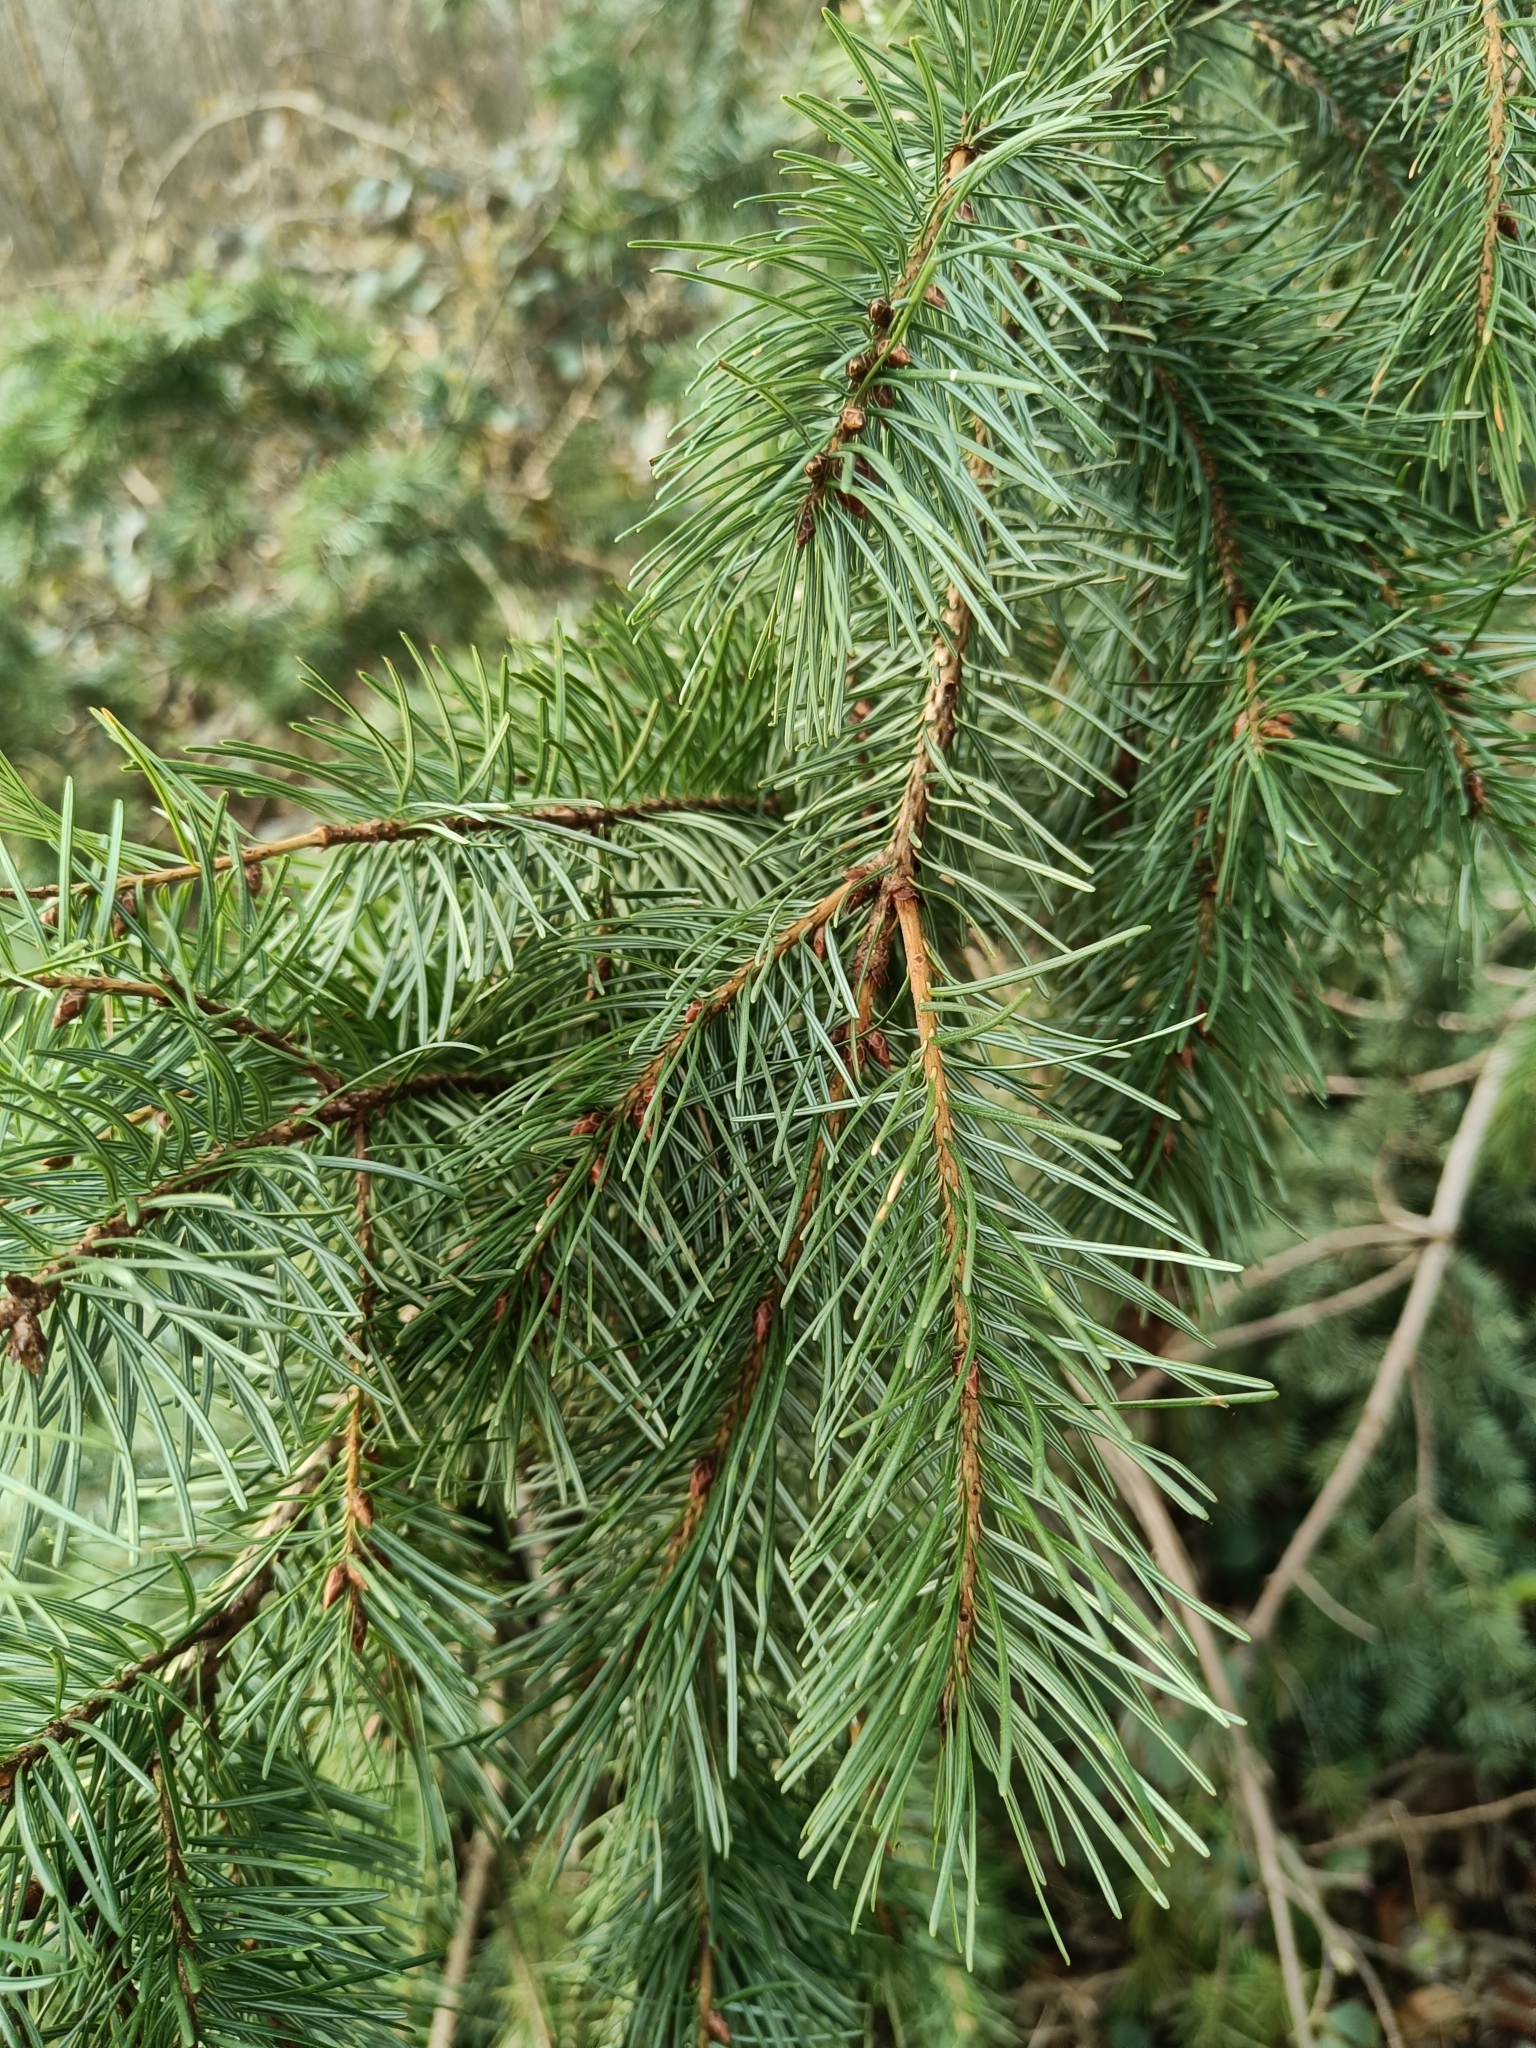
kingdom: Plantae
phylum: Tracheophyta
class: Pinopsida
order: Pinales
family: Pinaceae
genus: Pseudotsuga
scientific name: Pseudotsuga menziesii
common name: Douglas fir
